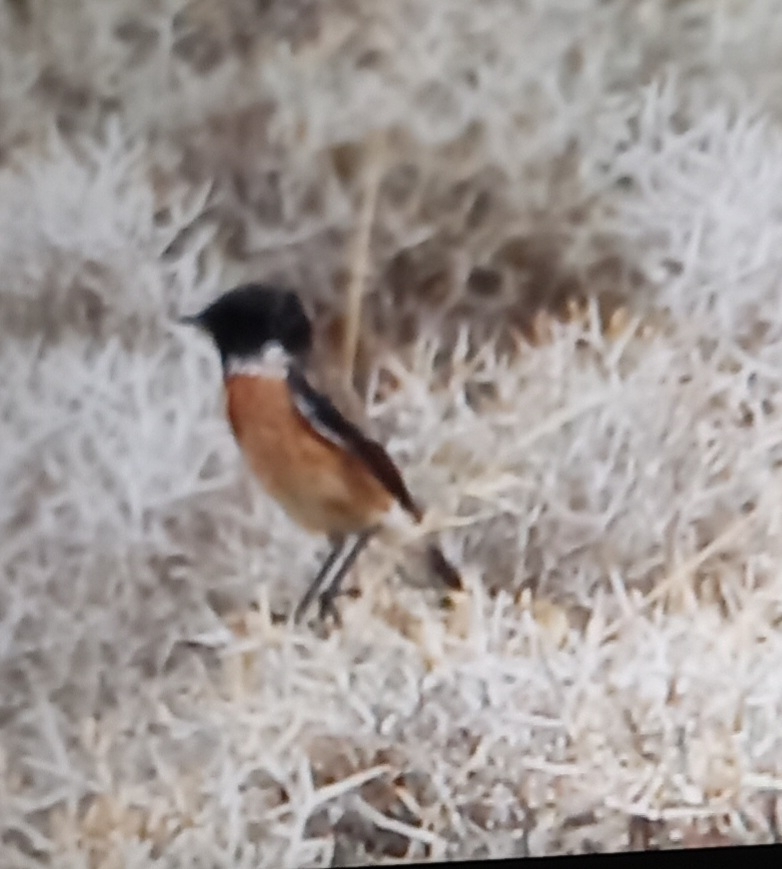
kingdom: Animalia
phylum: Chordata
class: Aves
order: Passeriformes
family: Muscicapidae
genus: Saxicola
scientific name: Saxicola rubicola
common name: European stonechat
